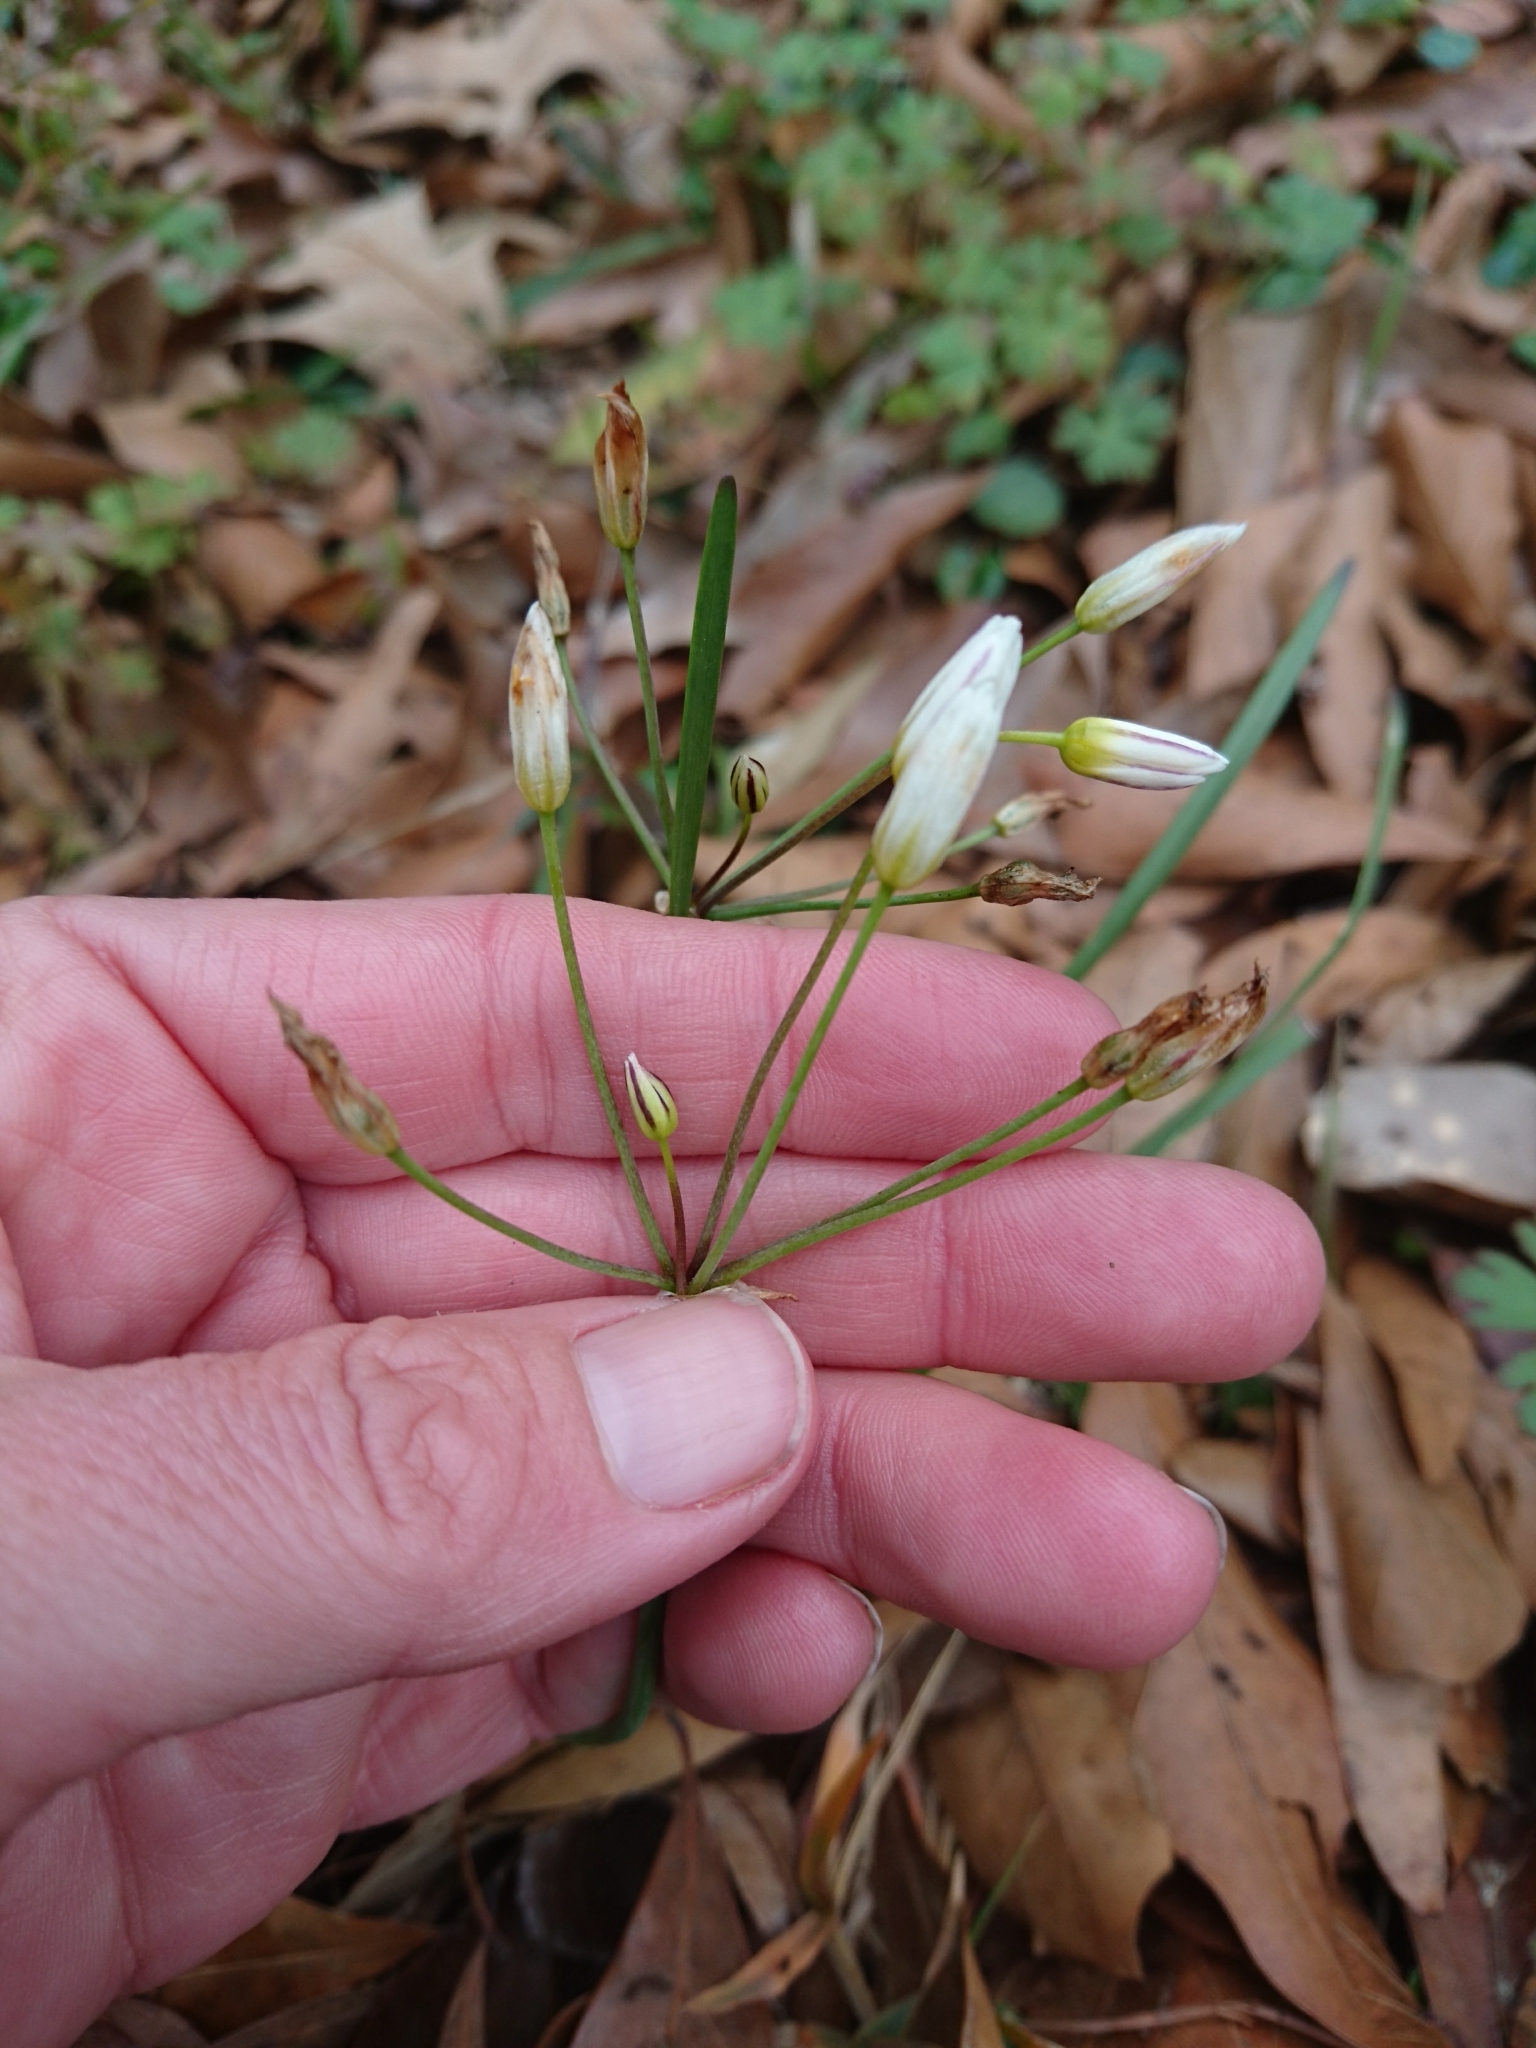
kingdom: Plantae
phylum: Tracheophyta
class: Liliopsida
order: Asparagales
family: Amaryllidaceae
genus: Nothoscordum
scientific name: Nothoscordum bivalve
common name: Crow-poison
